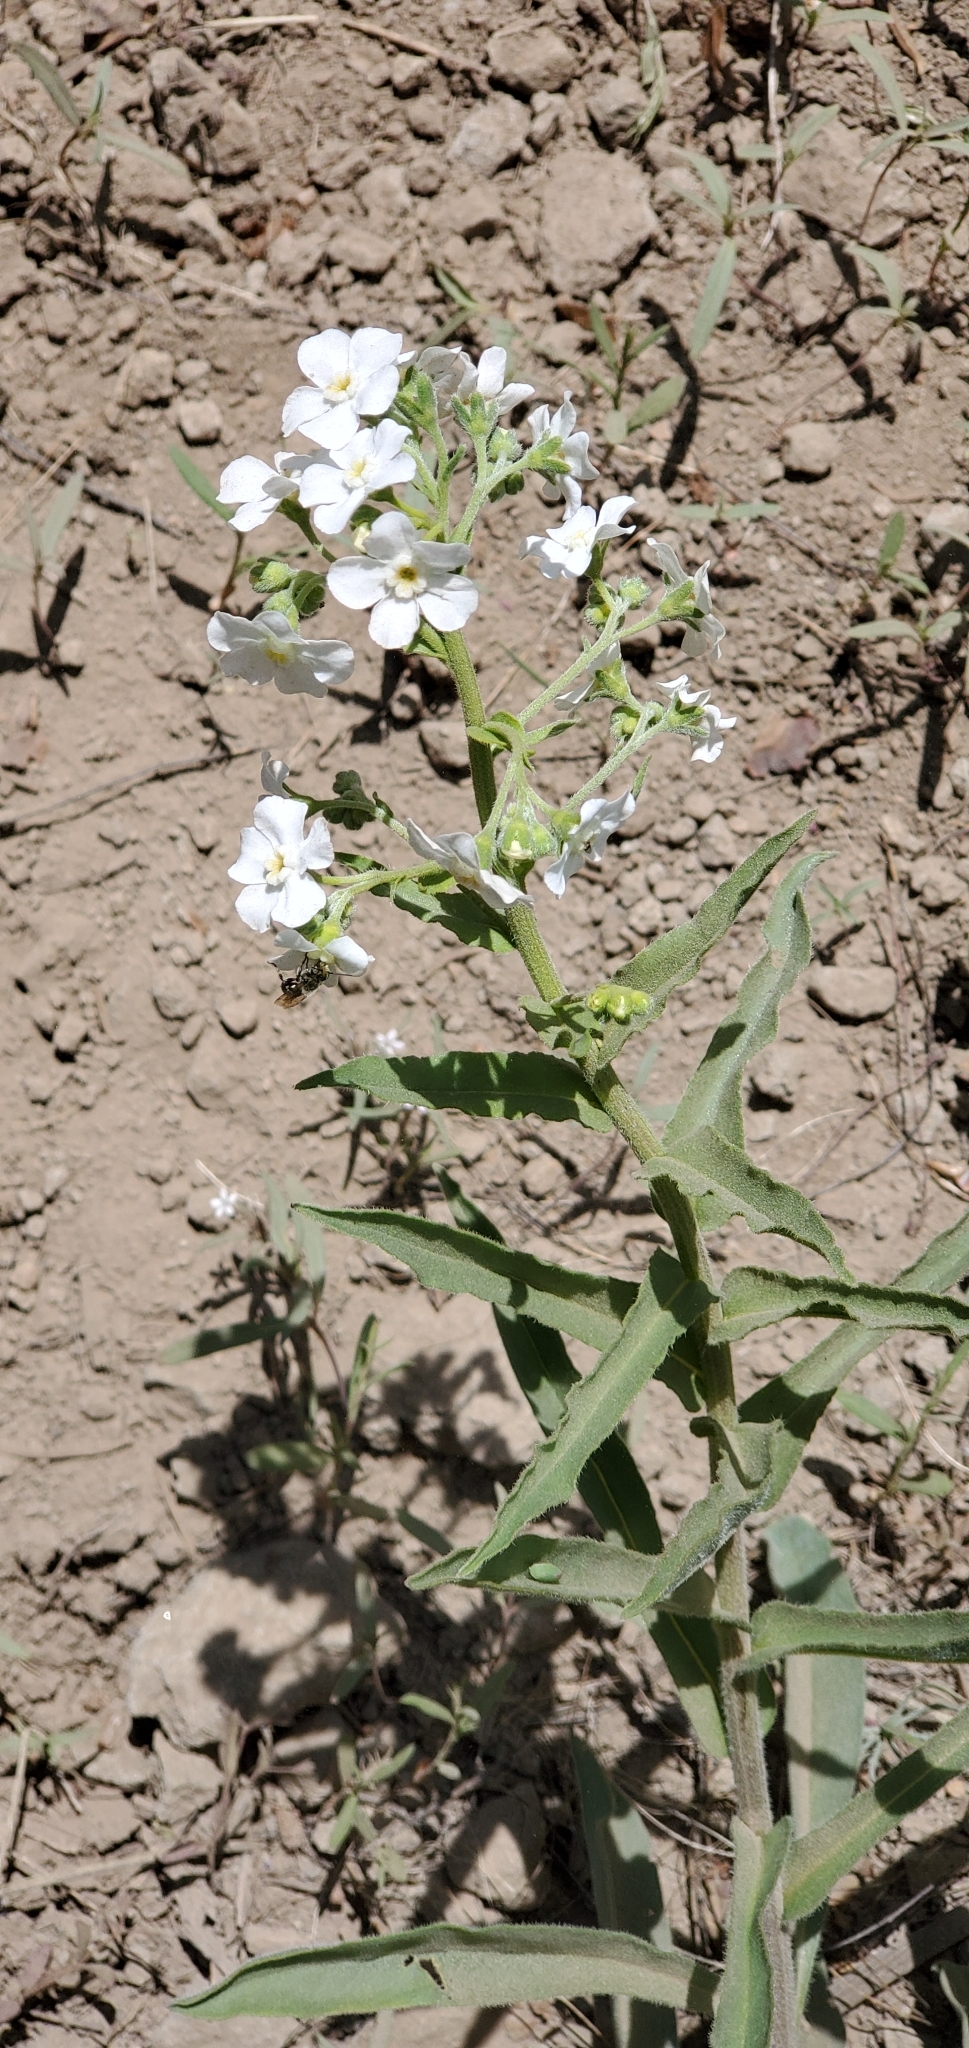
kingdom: Plantae
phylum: Tracheophyta
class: Magnoliopsida
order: Boraginales
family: Boraginaceae
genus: Hackelia
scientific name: Hackelia californica
